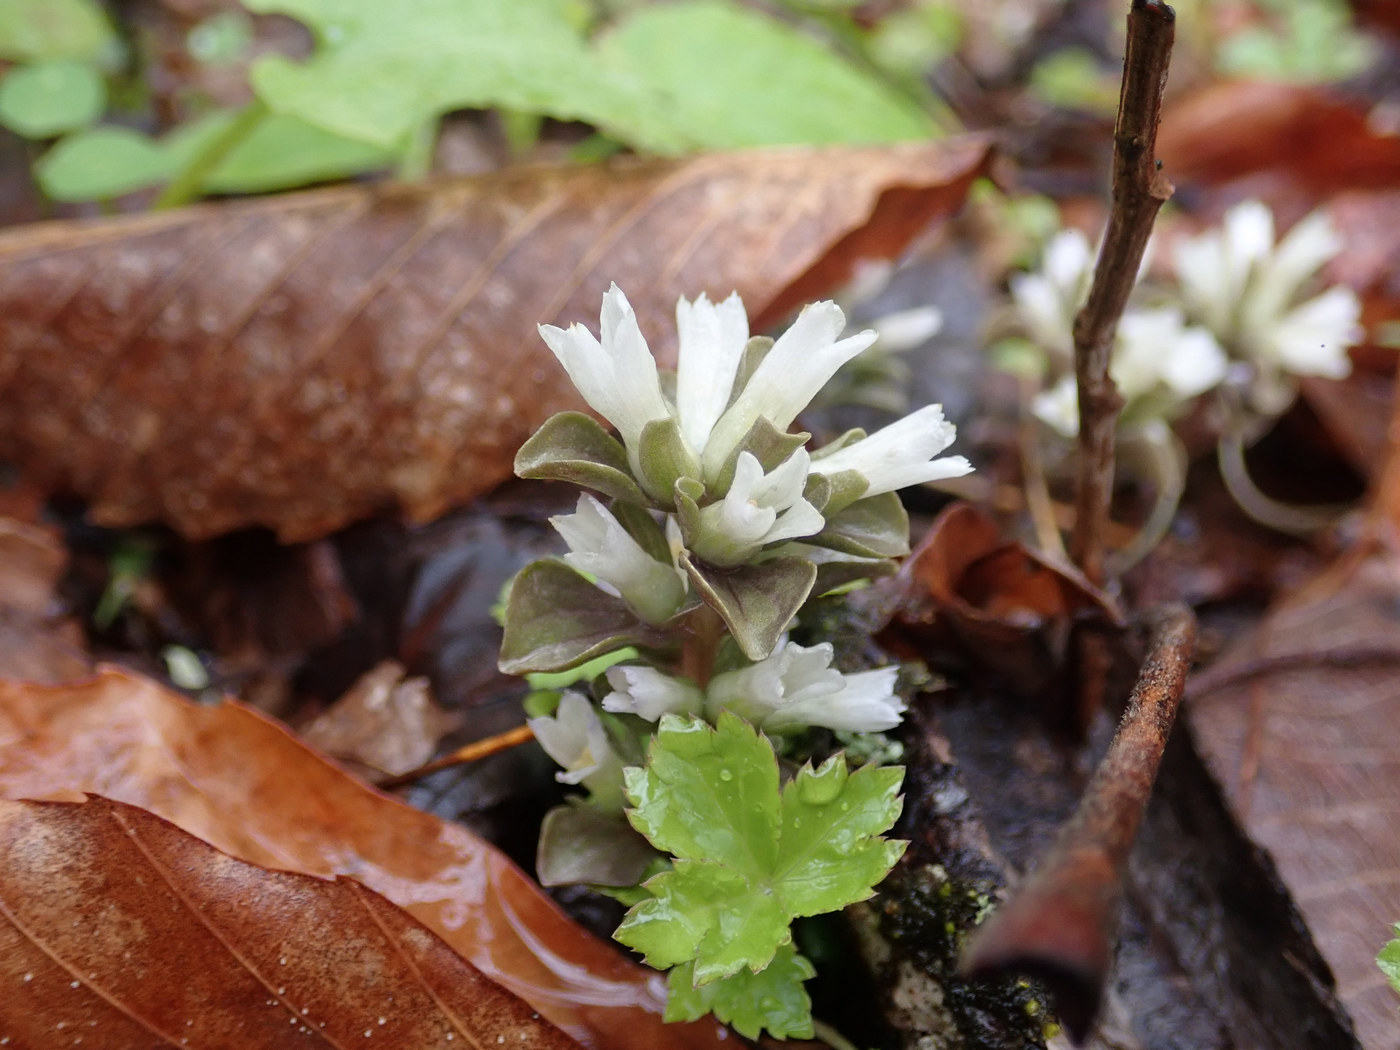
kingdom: Plantae
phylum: Tracheophyta
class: Magnoliopsida
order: Gentianales
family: Gentianaceae
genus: Obolaria
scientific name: Obolaria virginica
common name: Pennywort
